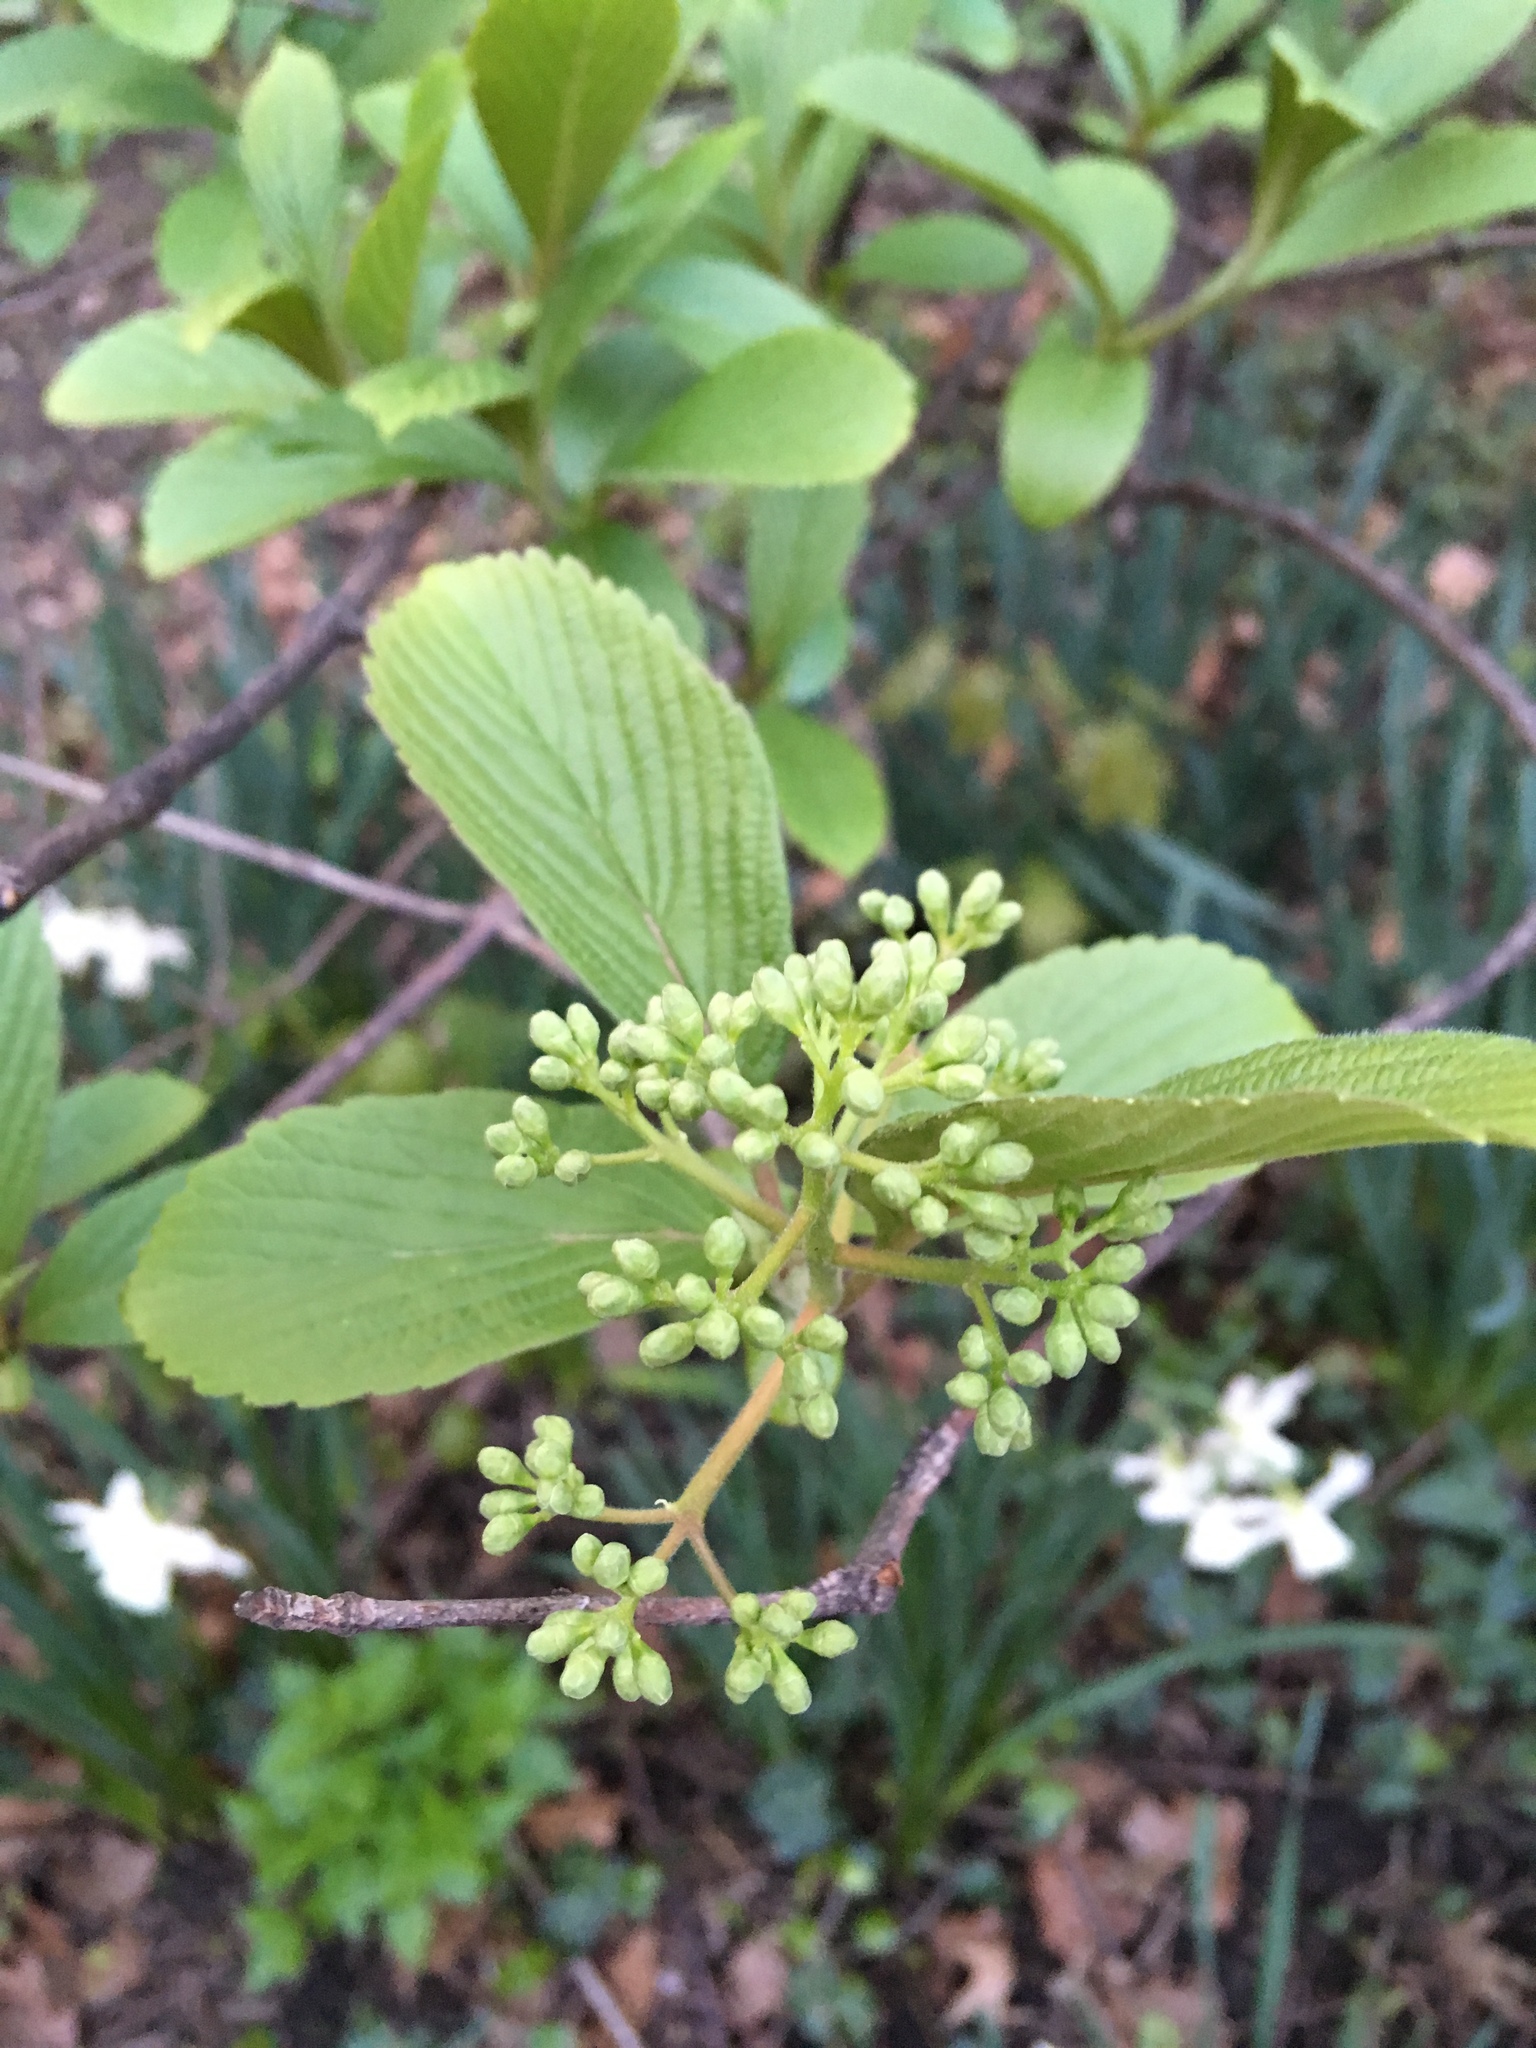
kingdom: Plantae
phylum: Tracheophyta
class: Magnoliopsida
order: Dipsacales
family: Viburnaceae
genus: Viburnum
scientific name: Viburnum sieboldii
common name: Siebold's arrowwood
